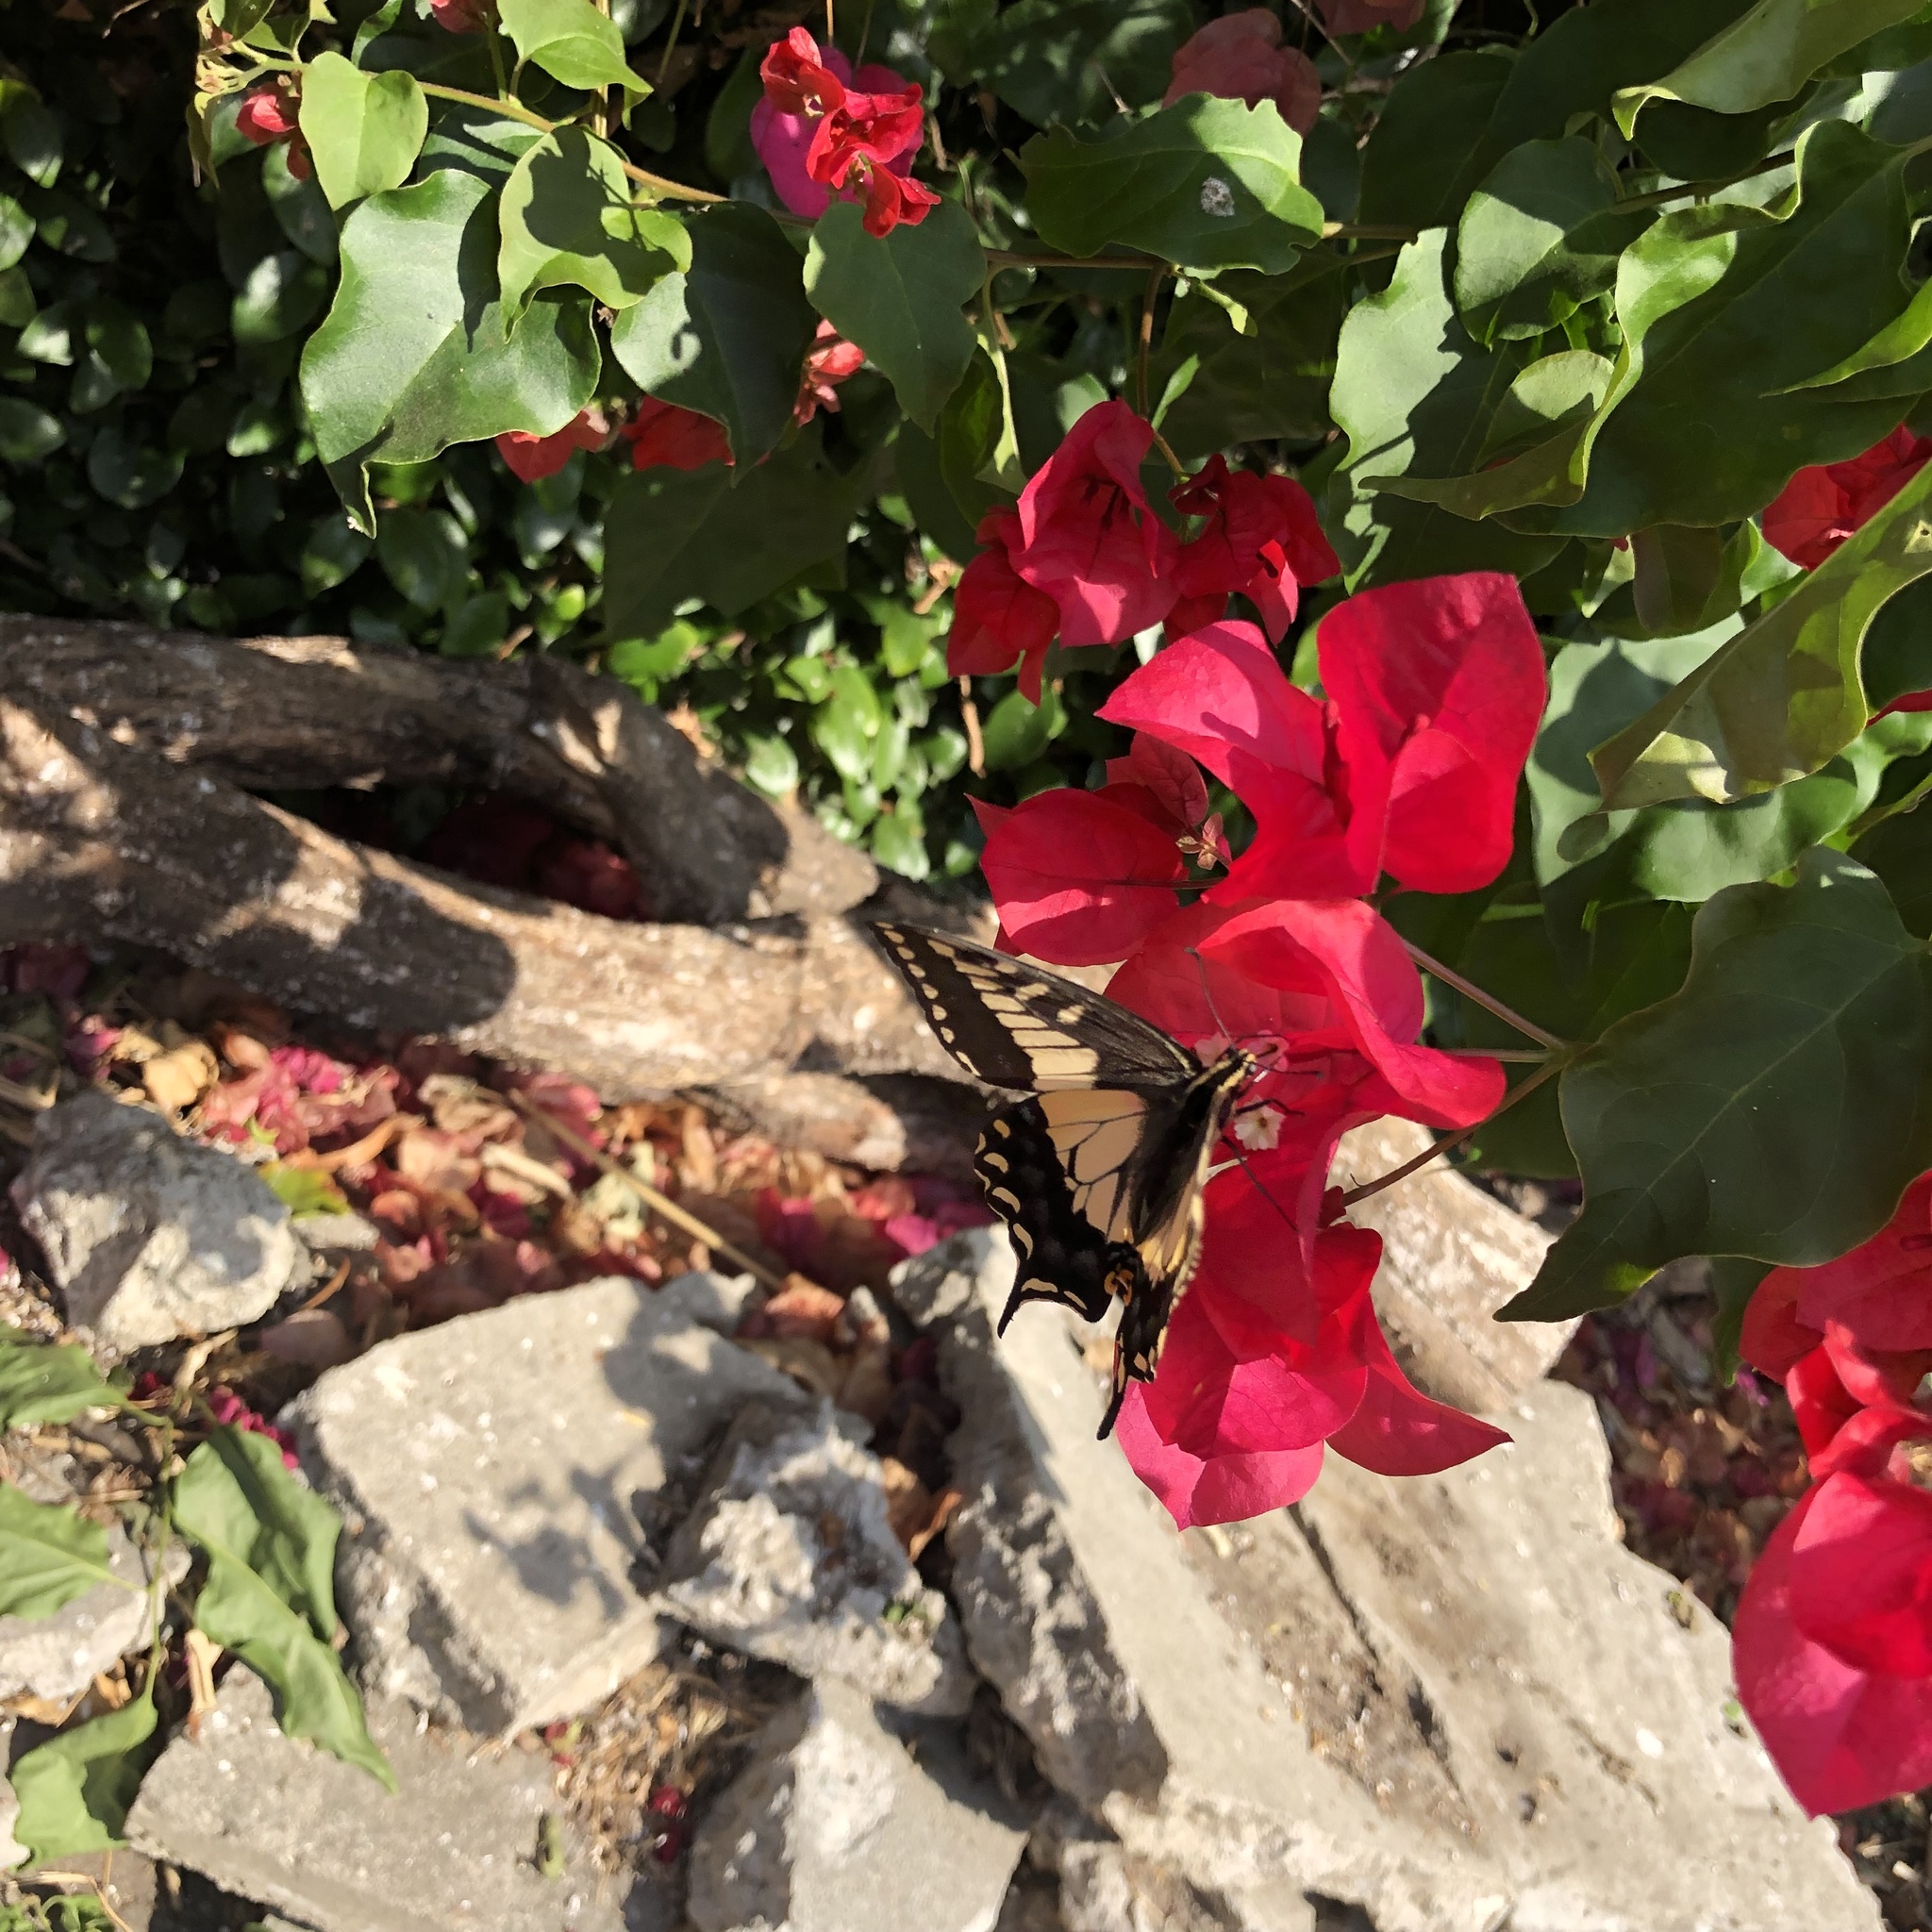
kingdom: Animalia
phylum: Arthropoda
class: Insecta
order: Lepidoptera
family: Papilionidae
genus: Papilio
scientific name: Papilio zelicaon
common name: Anise swallowtail
